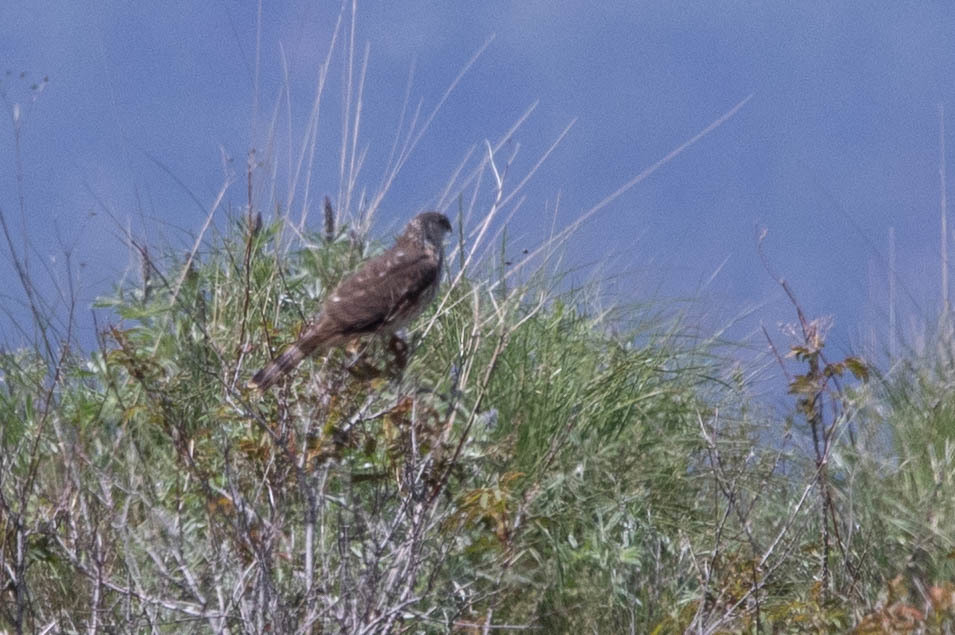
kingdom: Animalia
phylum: Chordata
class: Aves
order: Accipitriformes
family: Accipitridae
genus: Accipiter
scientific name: Accipiter striatus
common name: Sharp-shinned hawk
